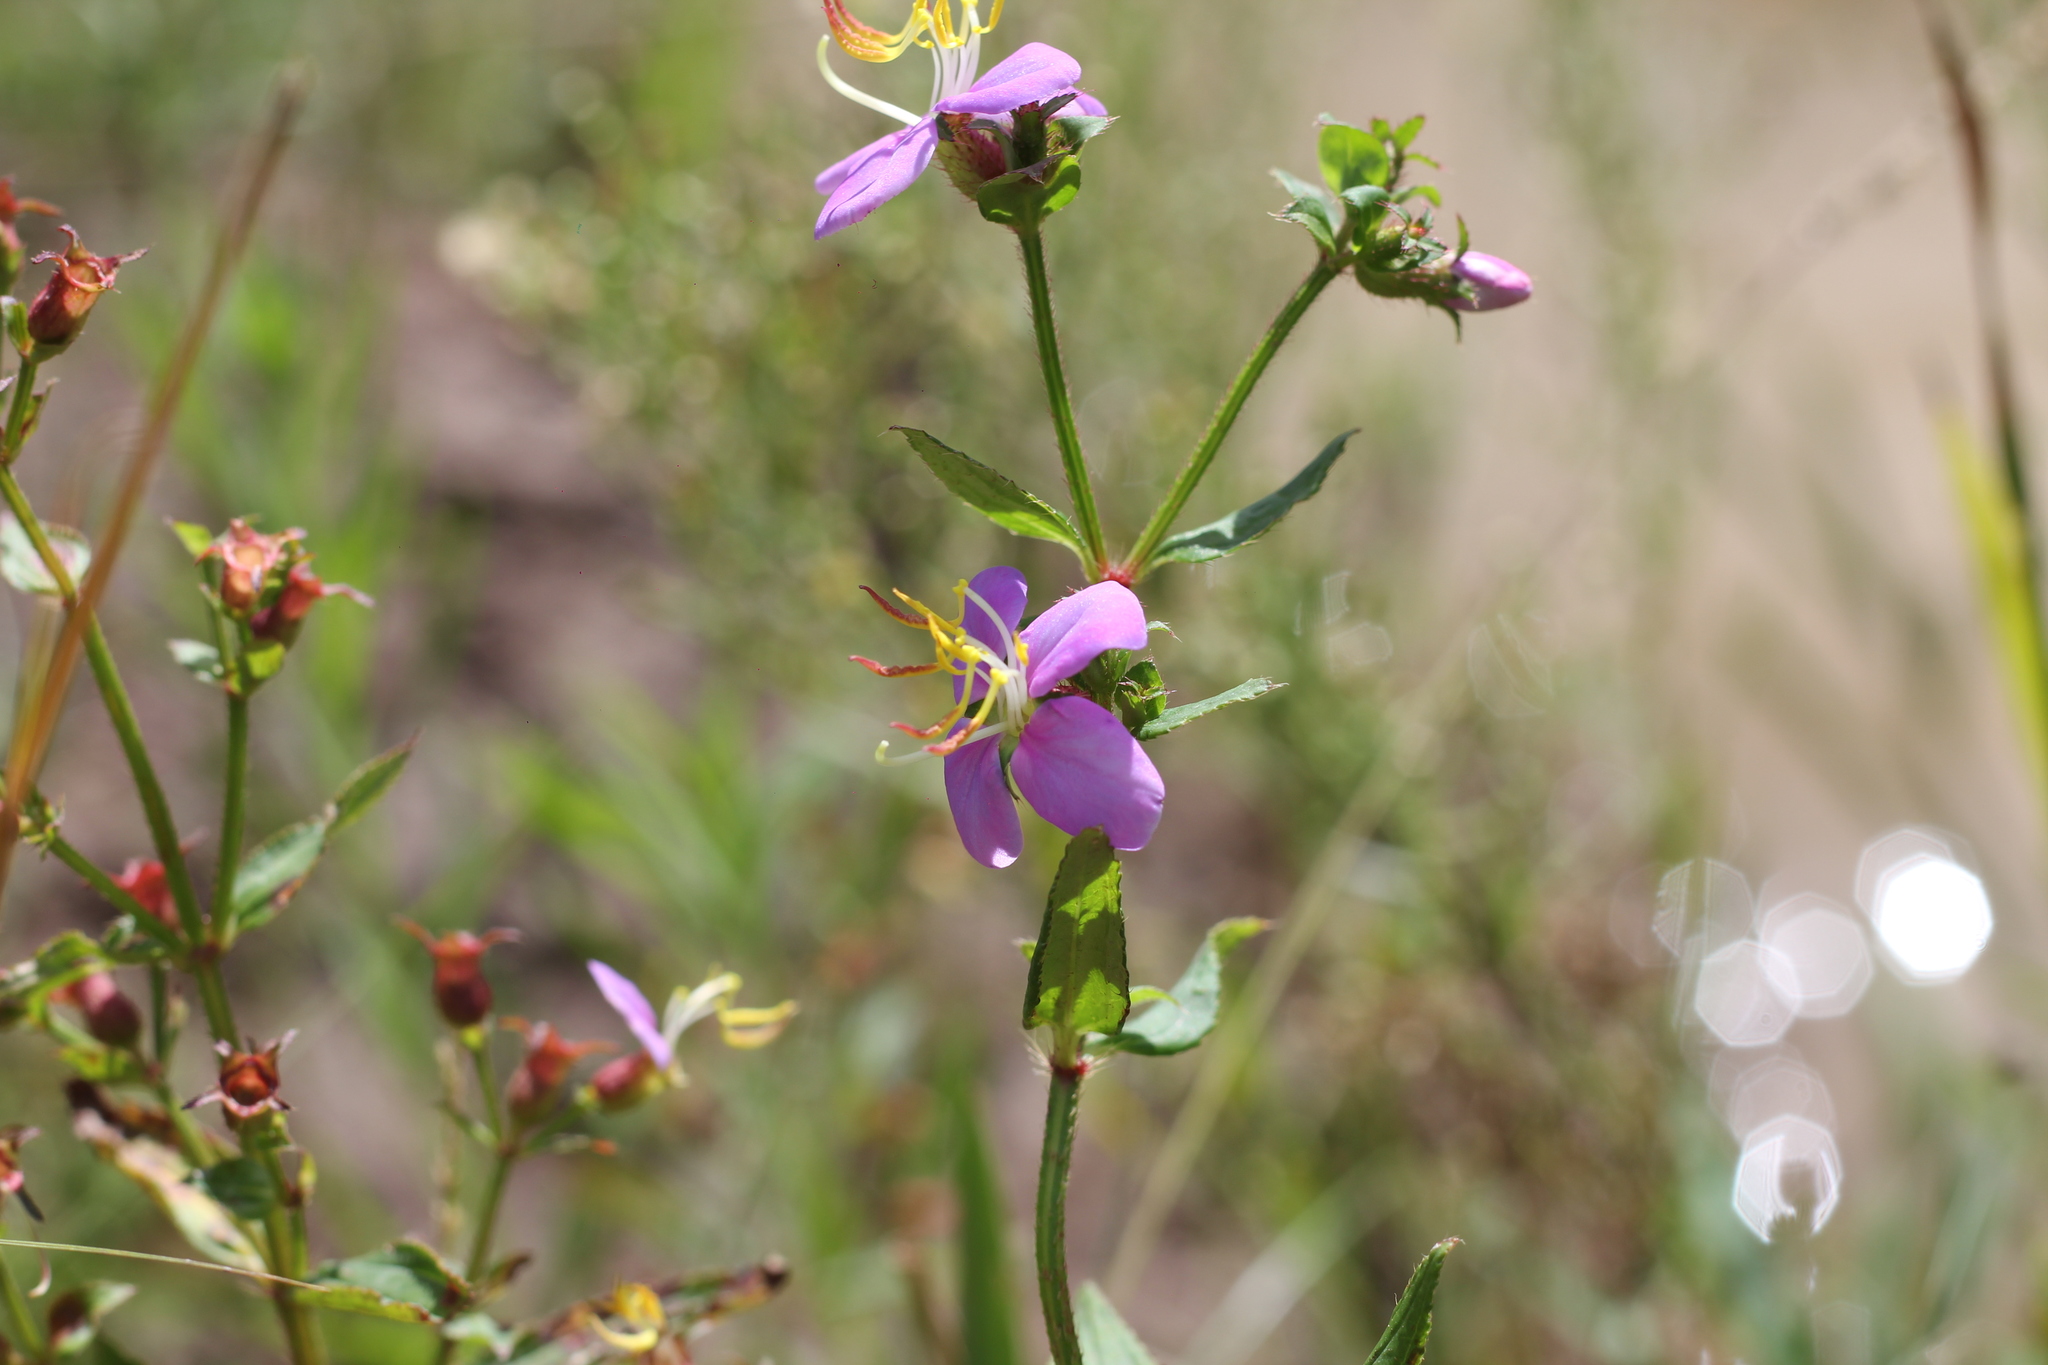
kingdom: Plantae
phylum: Tracheophyta
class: Magnoliopsida
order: Myrtales
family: Melastomataceae
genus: Chaetogastra
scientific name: Chaetogastra nitida
